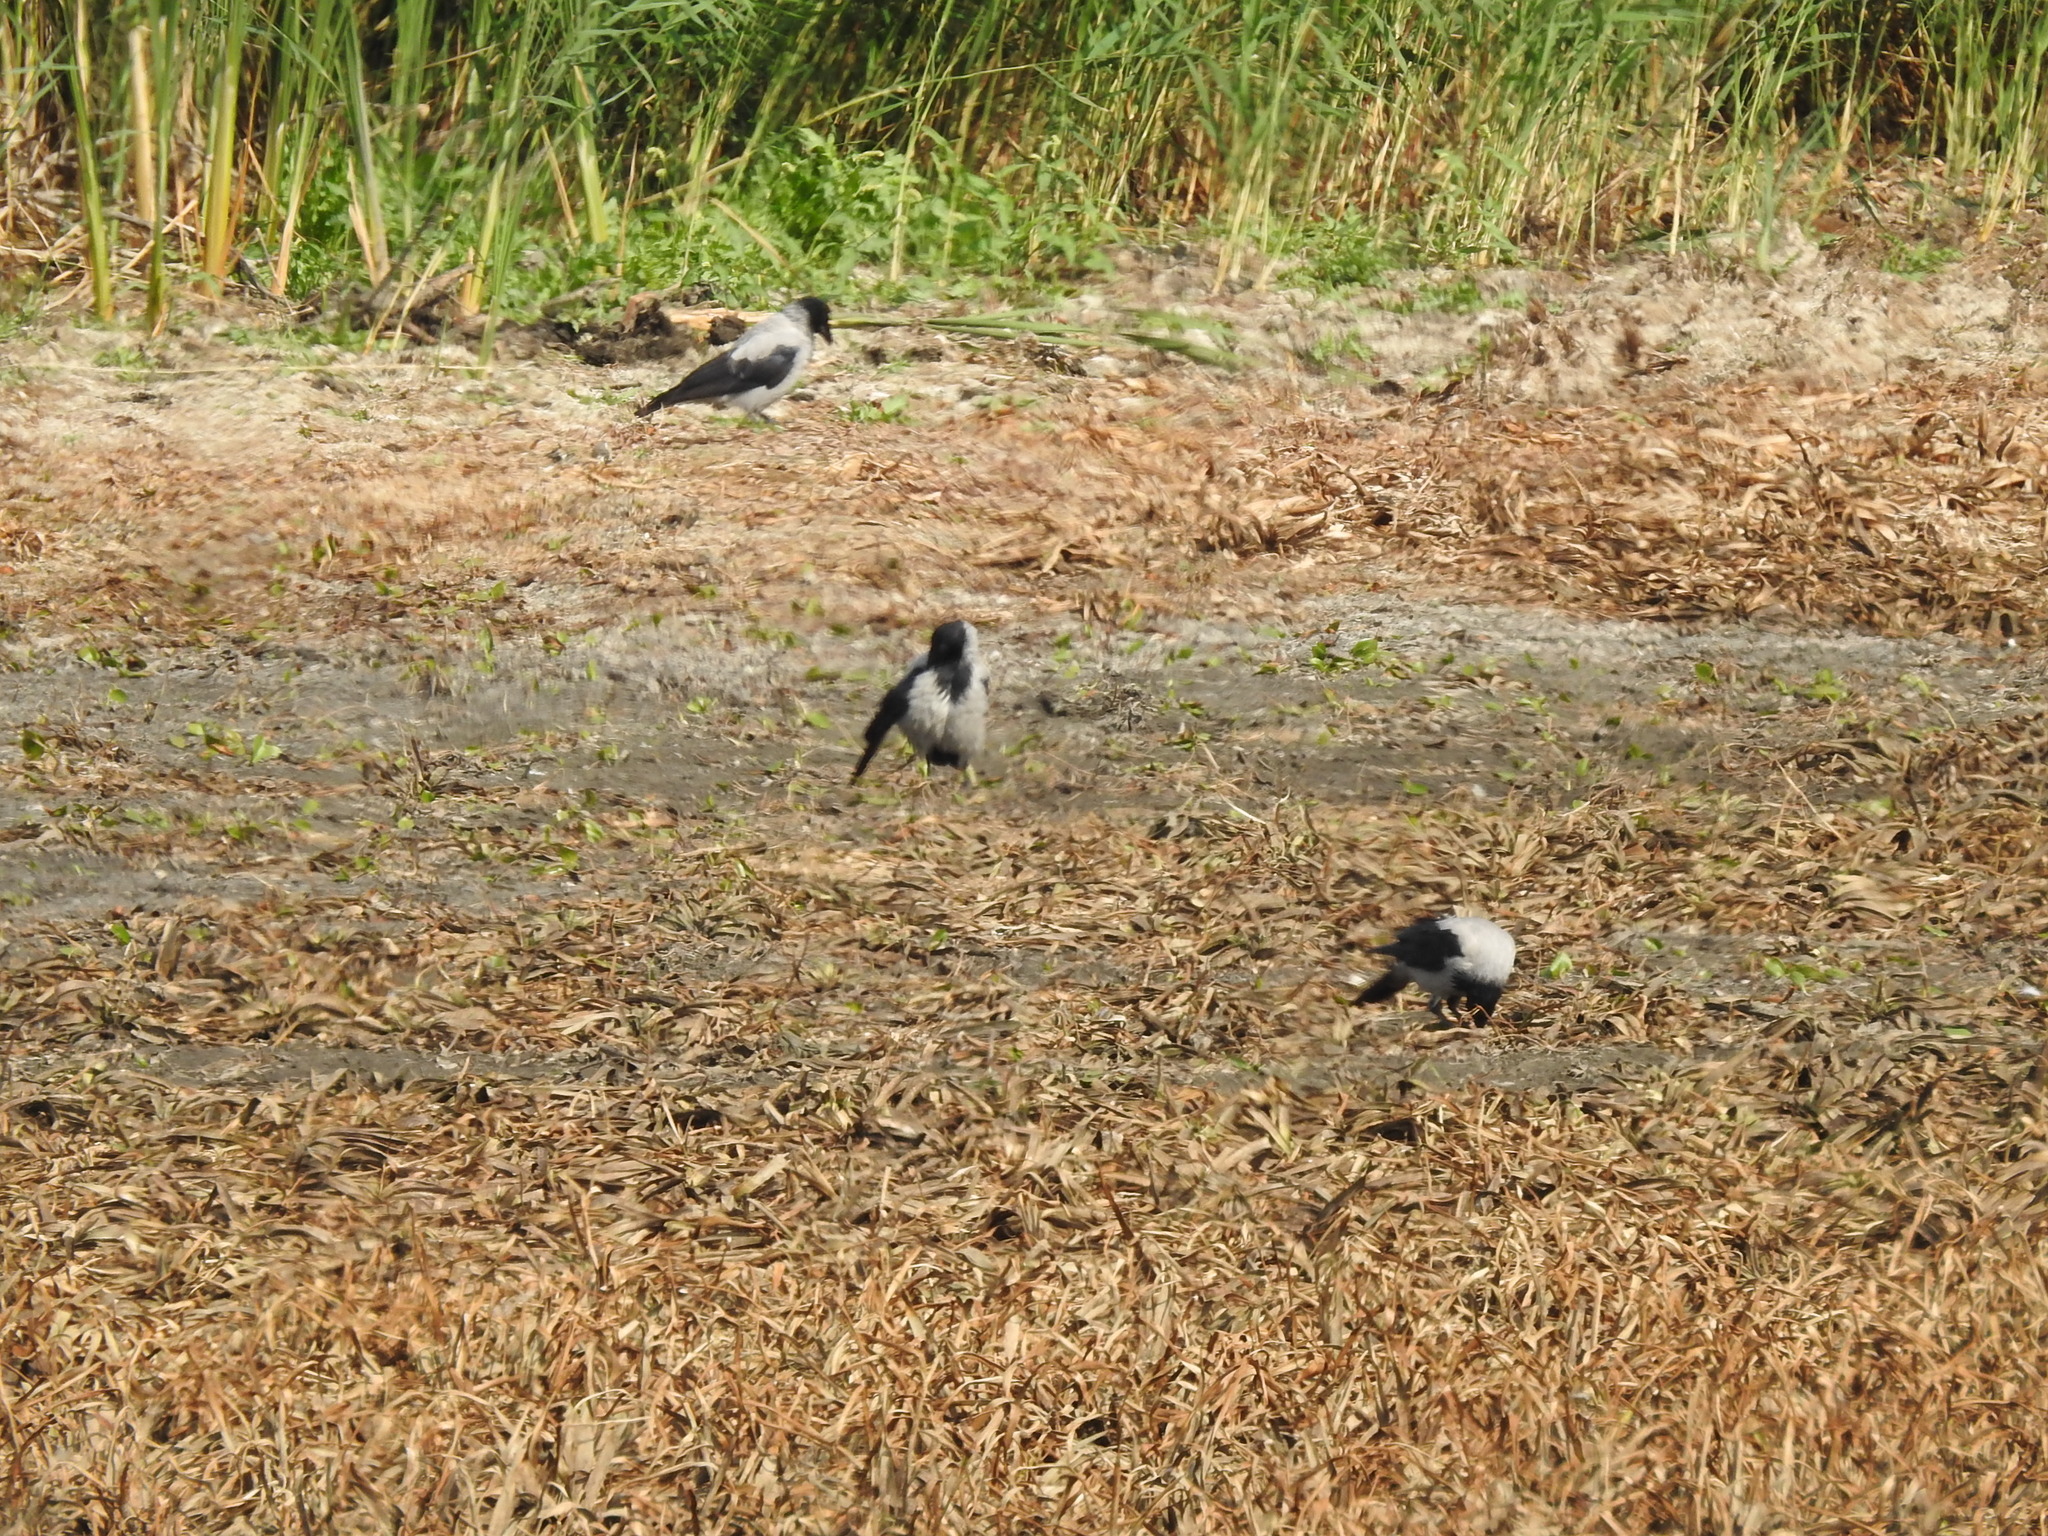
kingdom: Animalia
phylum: Chordata
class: Aves
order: Passeriformes
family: Corvidae
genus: Corvus
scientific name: Corvus cornix
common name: Hooded crow
